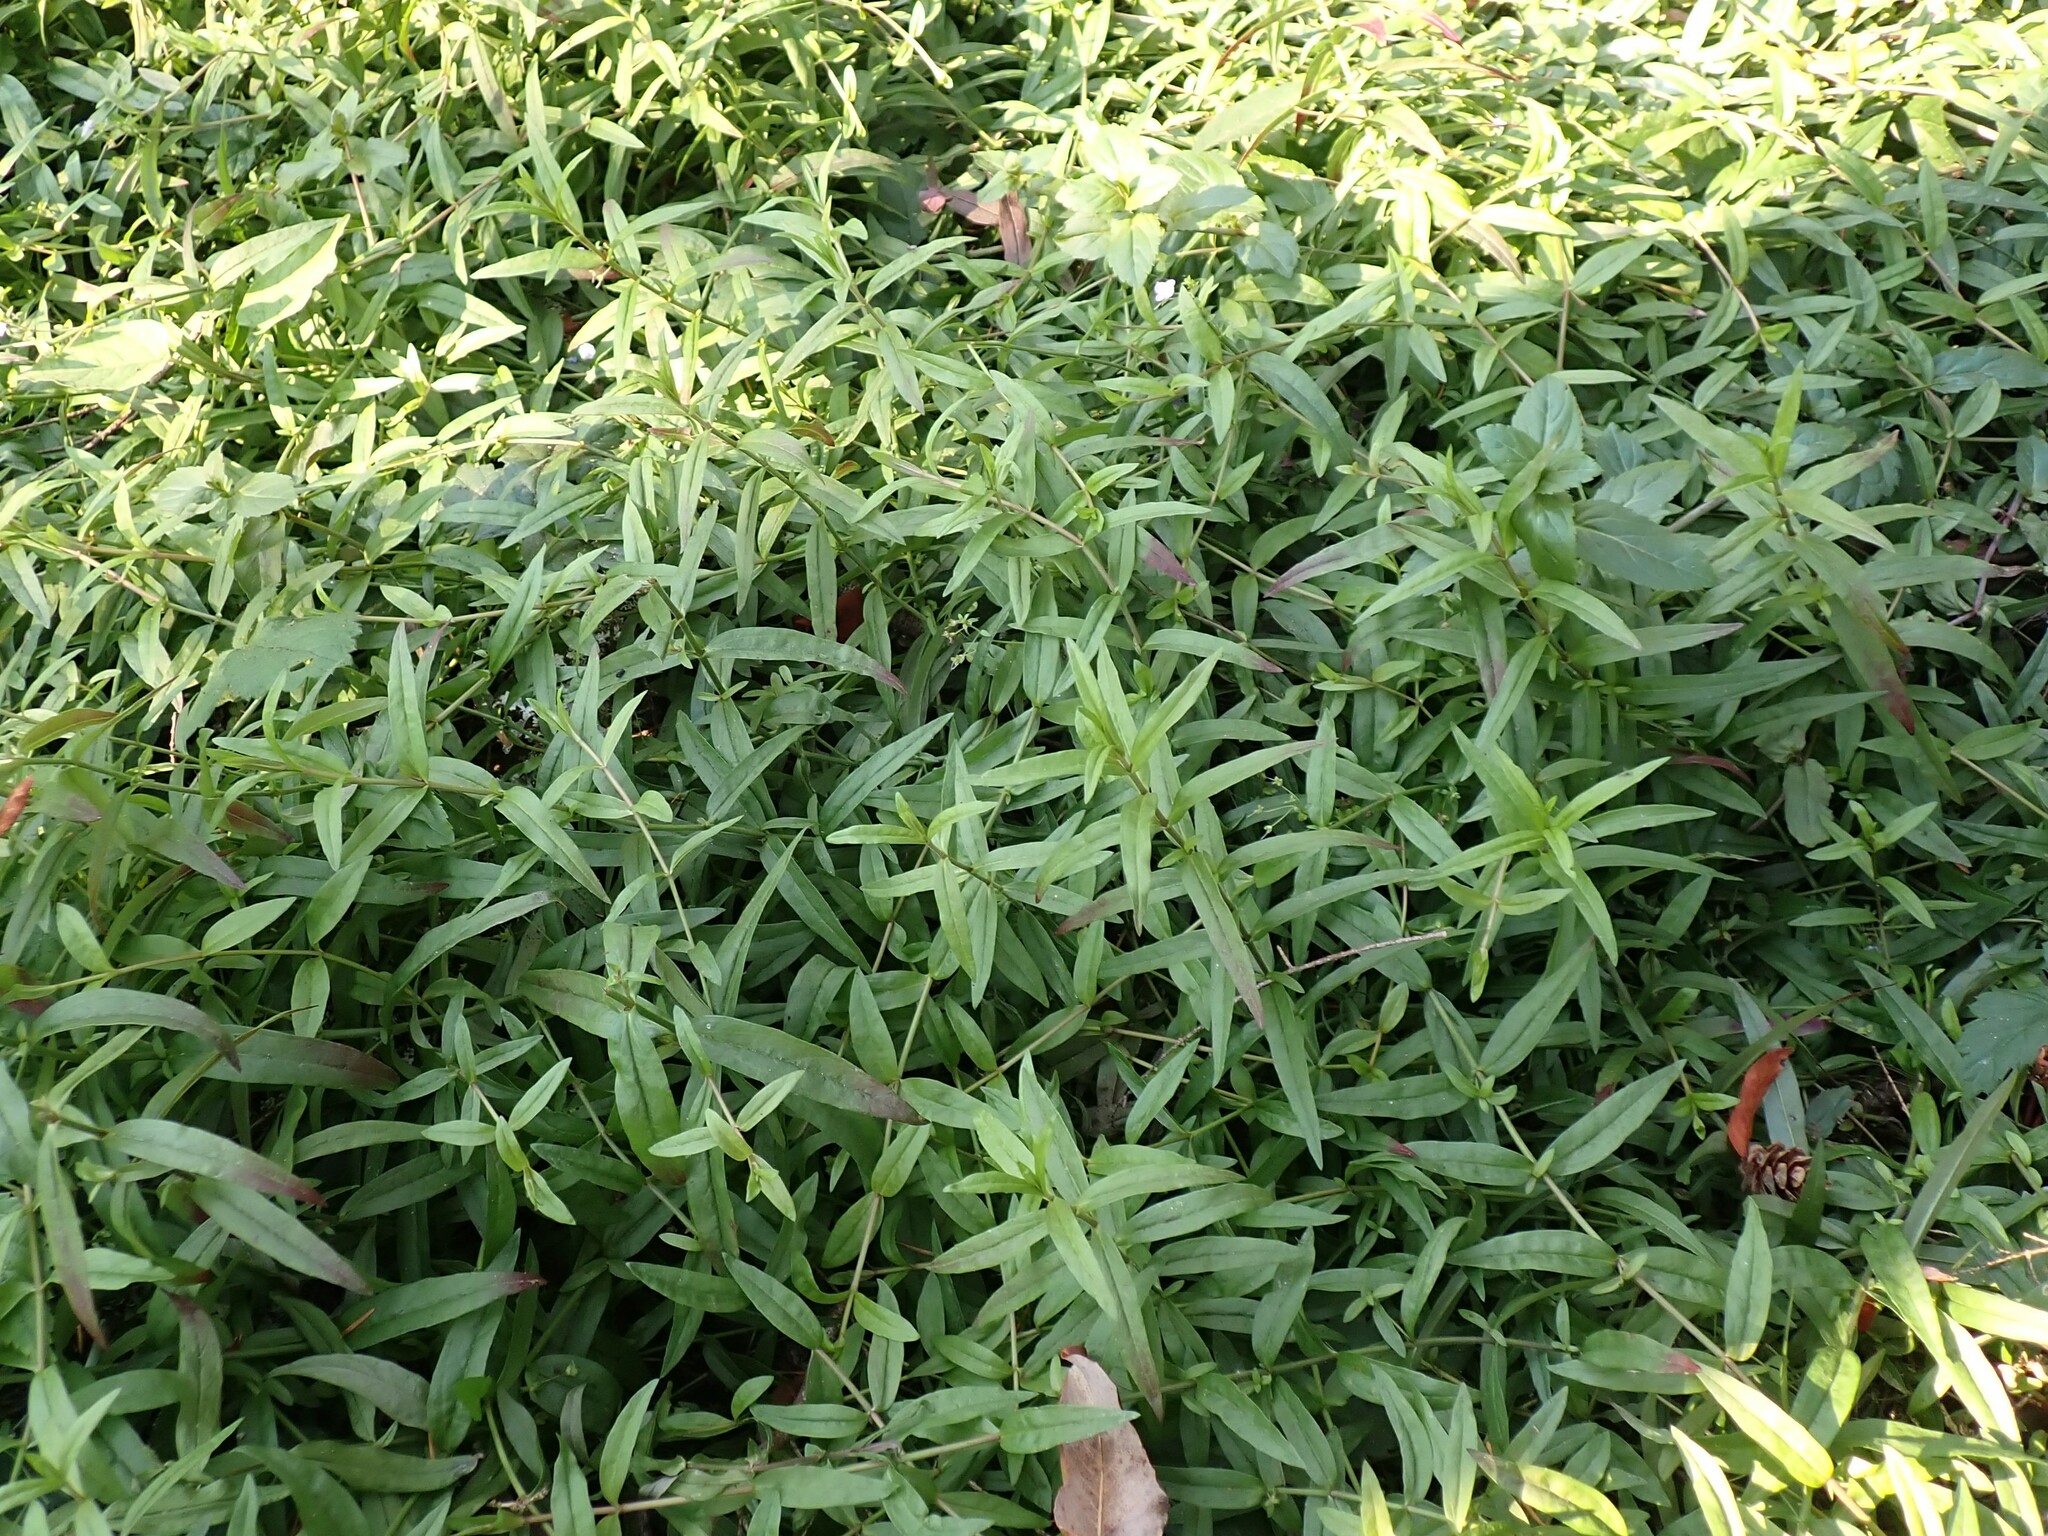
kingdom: Plantae
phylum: Tracheophyta
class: Magnoliopsida
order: Lamiales
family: Plantaginaceae
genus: Veronica
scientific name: Veronica scutellata
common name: Marsh speedwell
